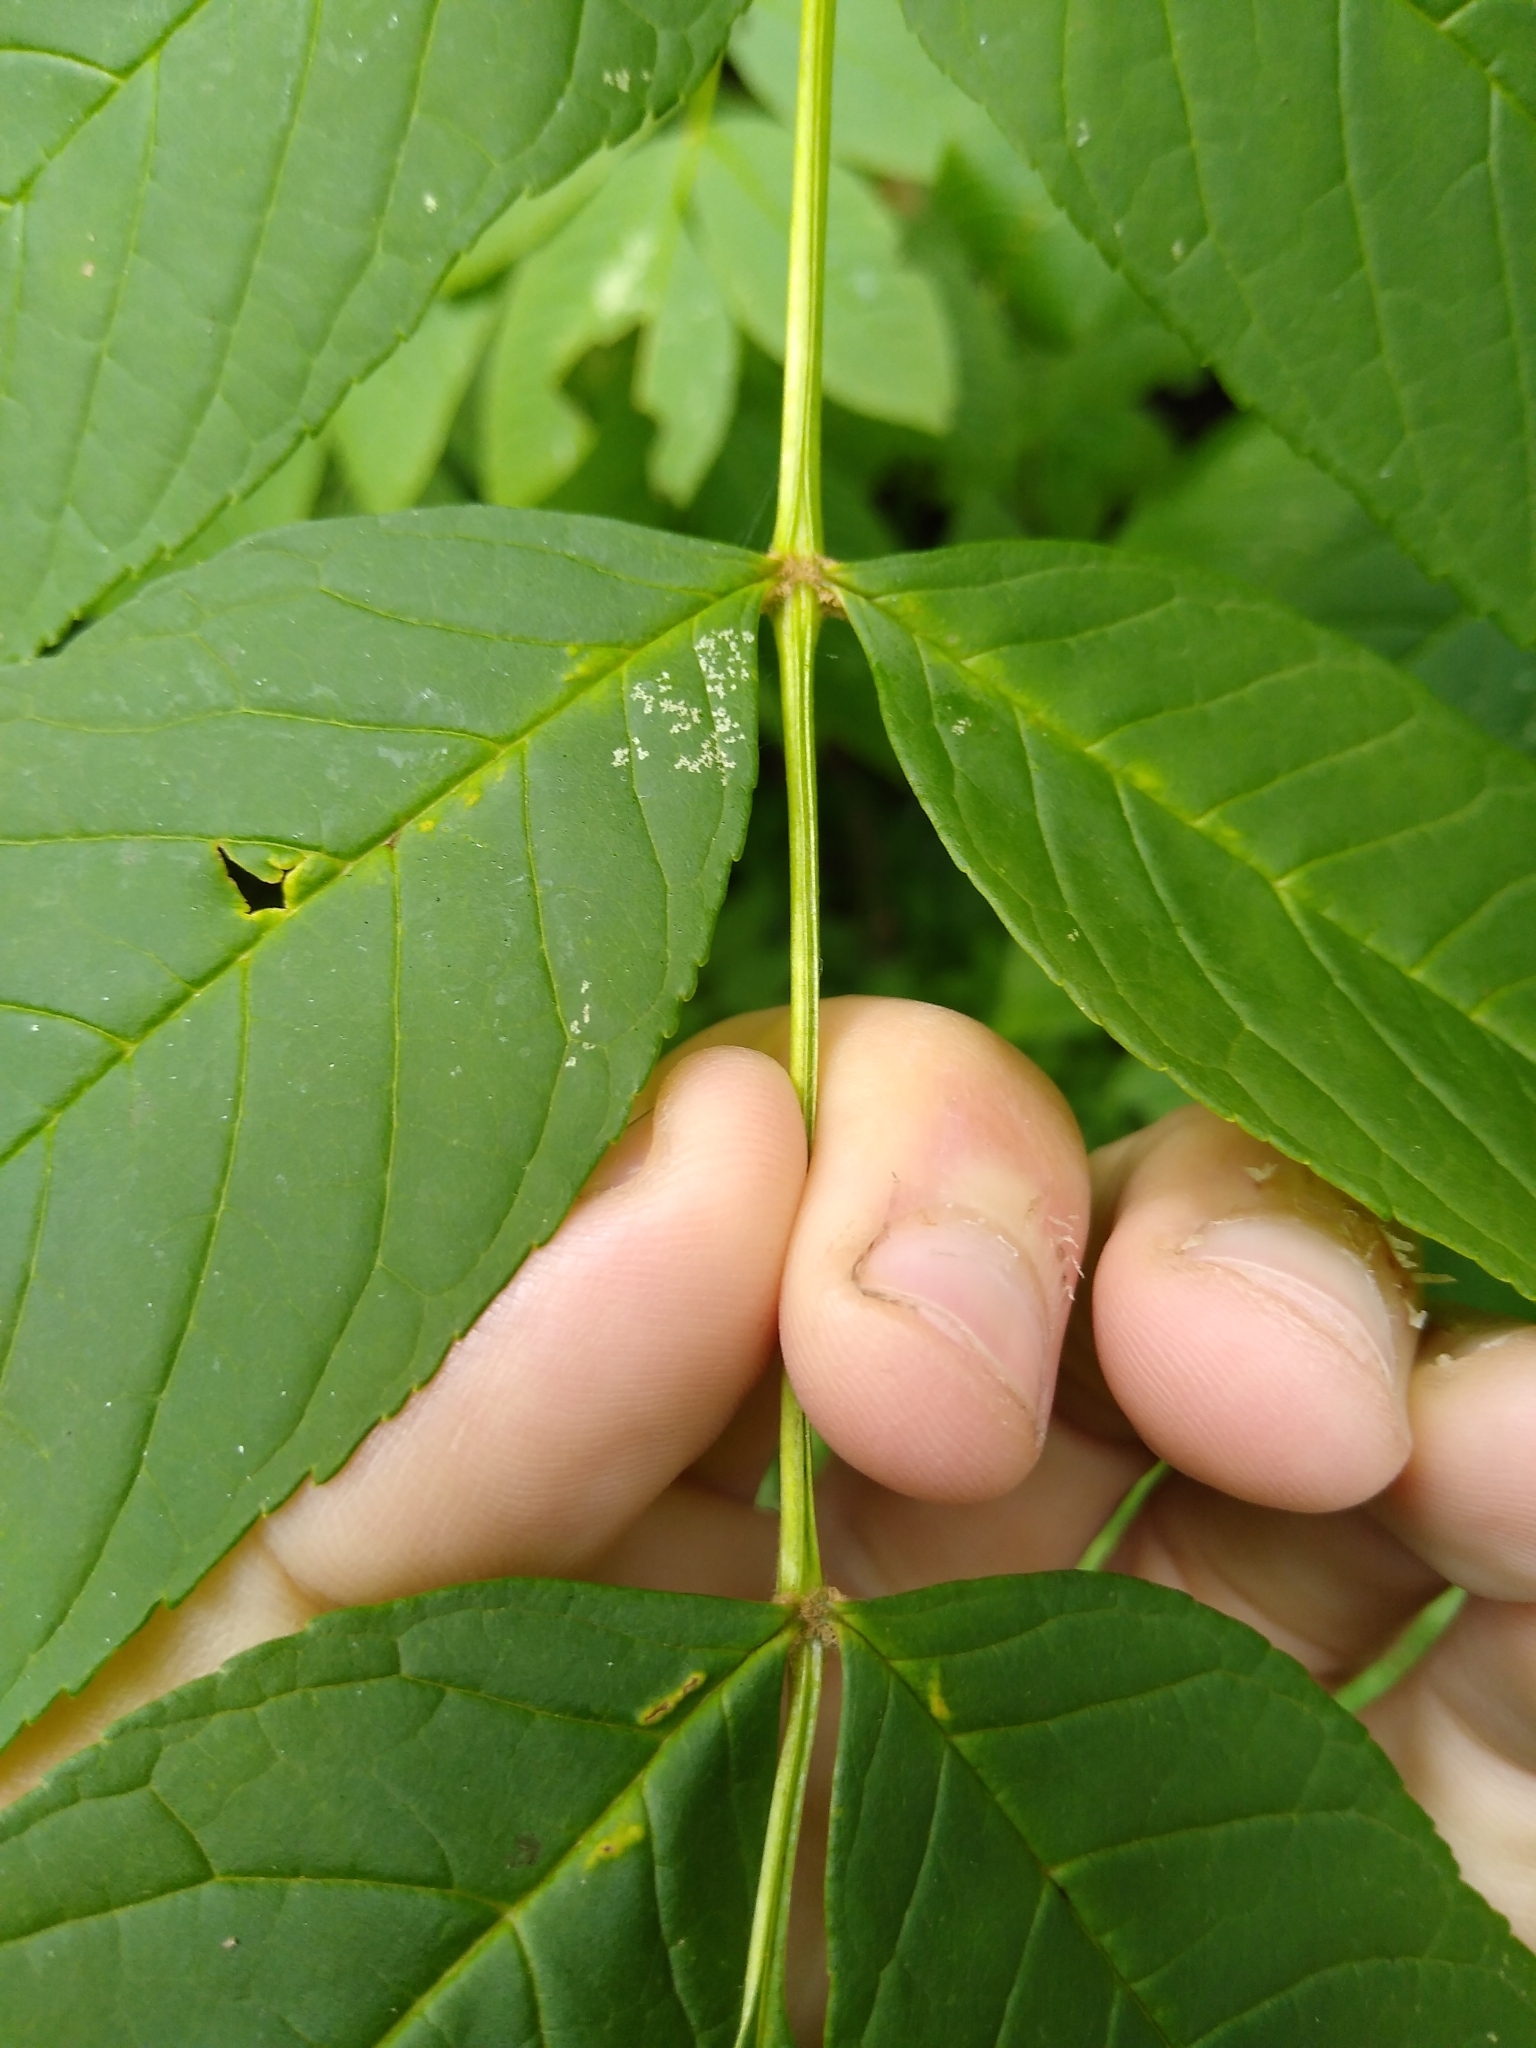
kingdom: Plantae
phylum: Tracheophyta
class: Magnoliopsida
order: Lamiales
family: Oleaceae
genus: Fraxinus
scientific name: Fraxinus nigra
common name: Black ash
